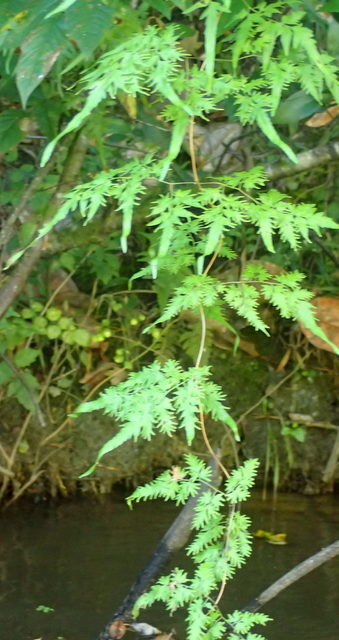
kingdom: Plantae
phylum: Tracheophyta
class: Polypodiopsida
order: Schizaeales
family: Lygodiaceae
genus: Lygodium
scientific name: Lygodium japonicum
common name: Japanese climbing fern
